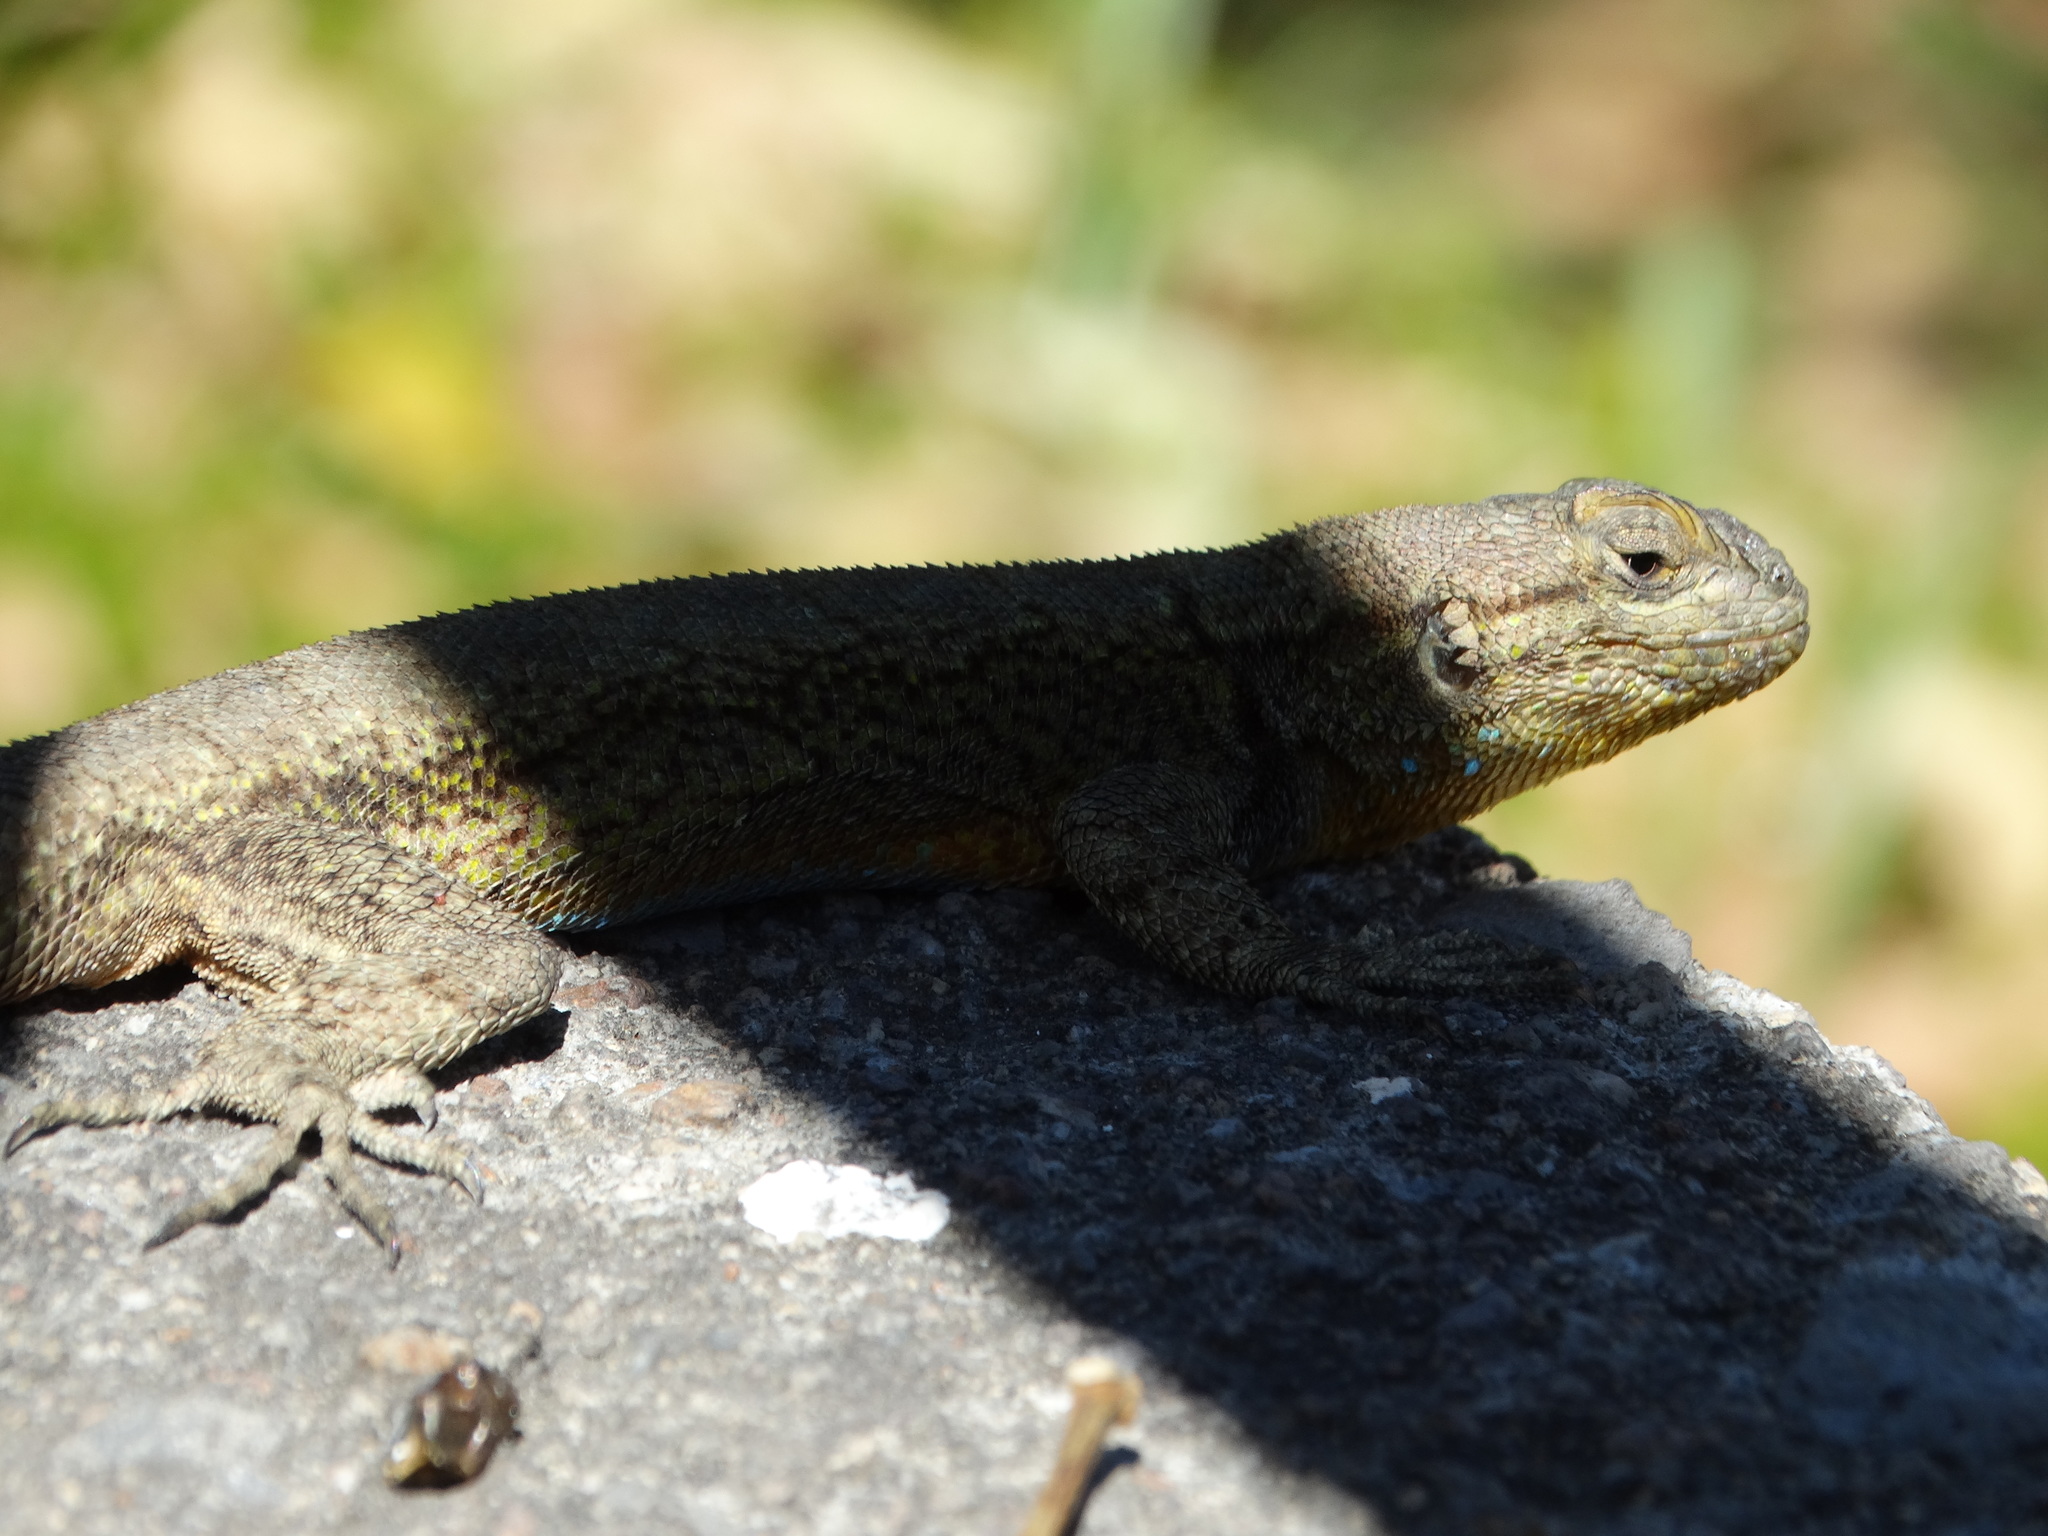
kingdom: Animalia
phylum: Chordata
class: Squamata
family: Phrynosomatidae
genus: Sceloporus
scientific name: Sceloporus grammicus
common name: Mesquite lizard
